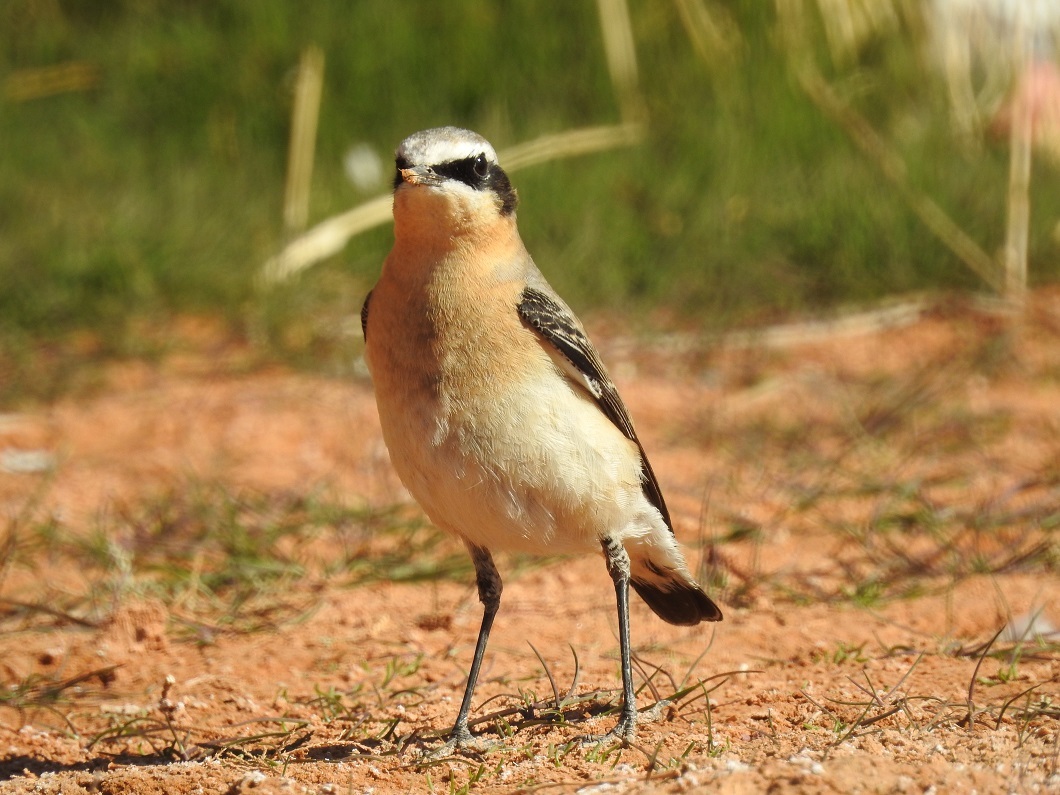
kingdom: Animalia
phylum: Chordata
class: Aves
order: Passeriformes
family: Muscicapidae
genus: Oenanthe
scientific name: Oenanthe oenanthe
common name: Northern wheatear
